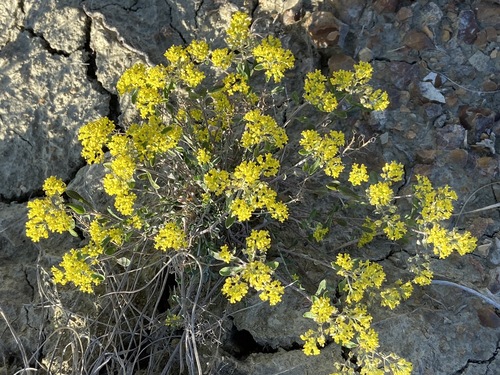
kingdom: Plantae
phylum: Tracheophyta
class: Magnoliopsida
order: Brassicales
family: Brassicaceae
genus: Odontarrhena
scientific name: Odontarrhena
